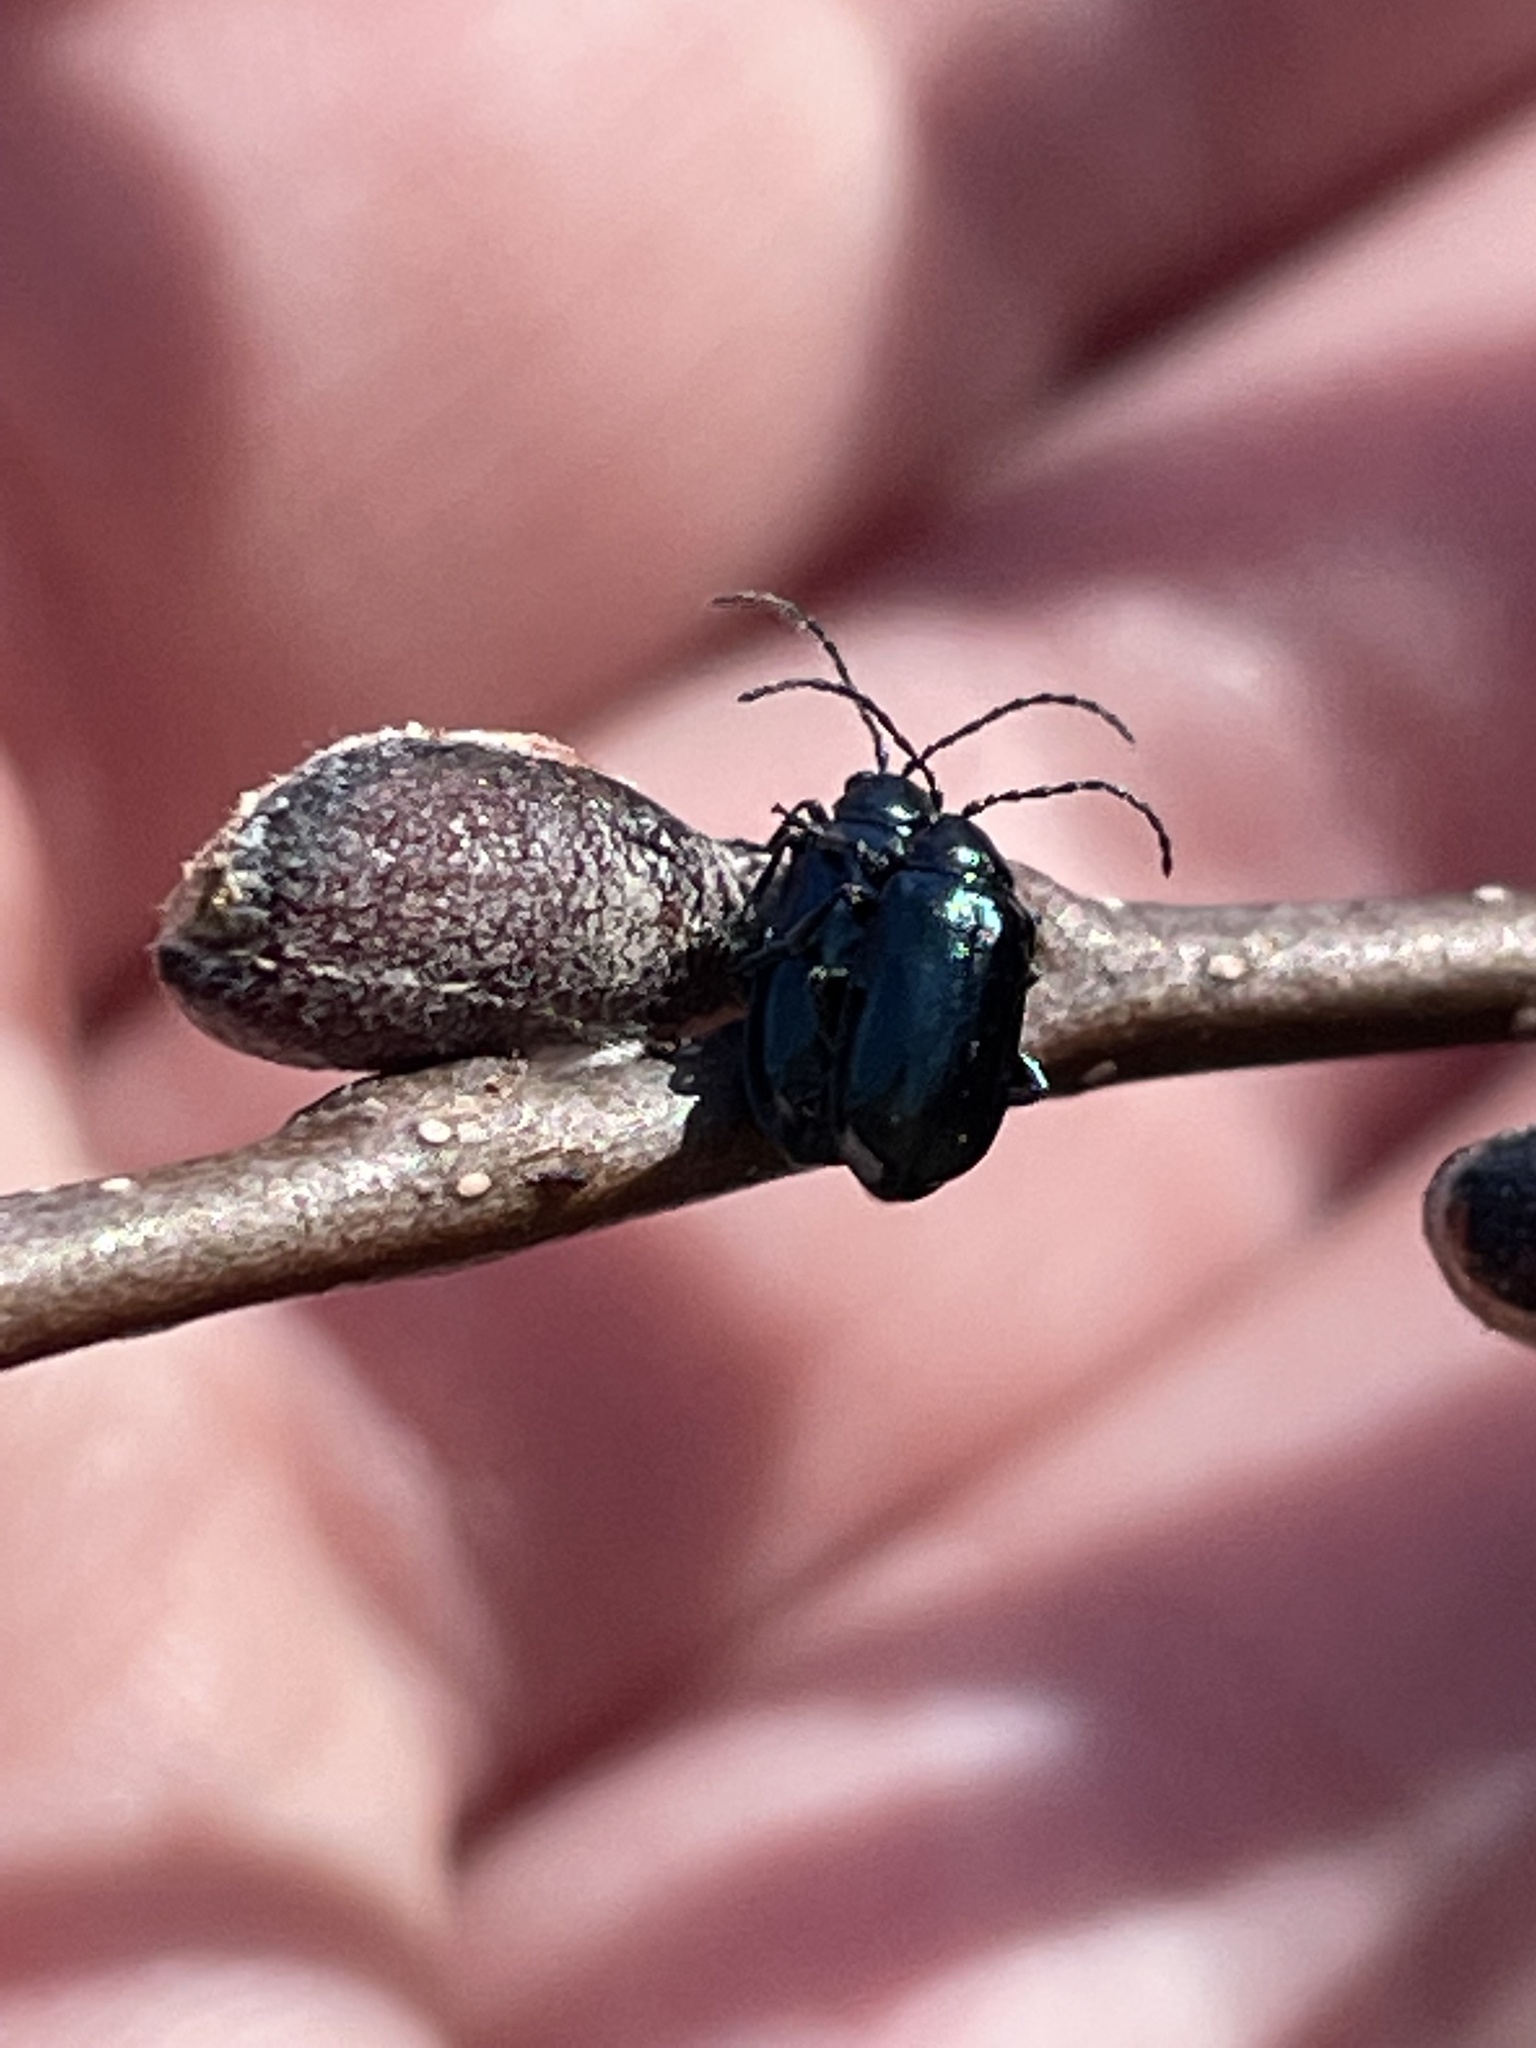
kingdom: Animalia
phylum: Arthropoda
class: Insecta
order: Coleoptera
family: Chrysomelidae
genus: Altica
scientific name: Altica ambiens
